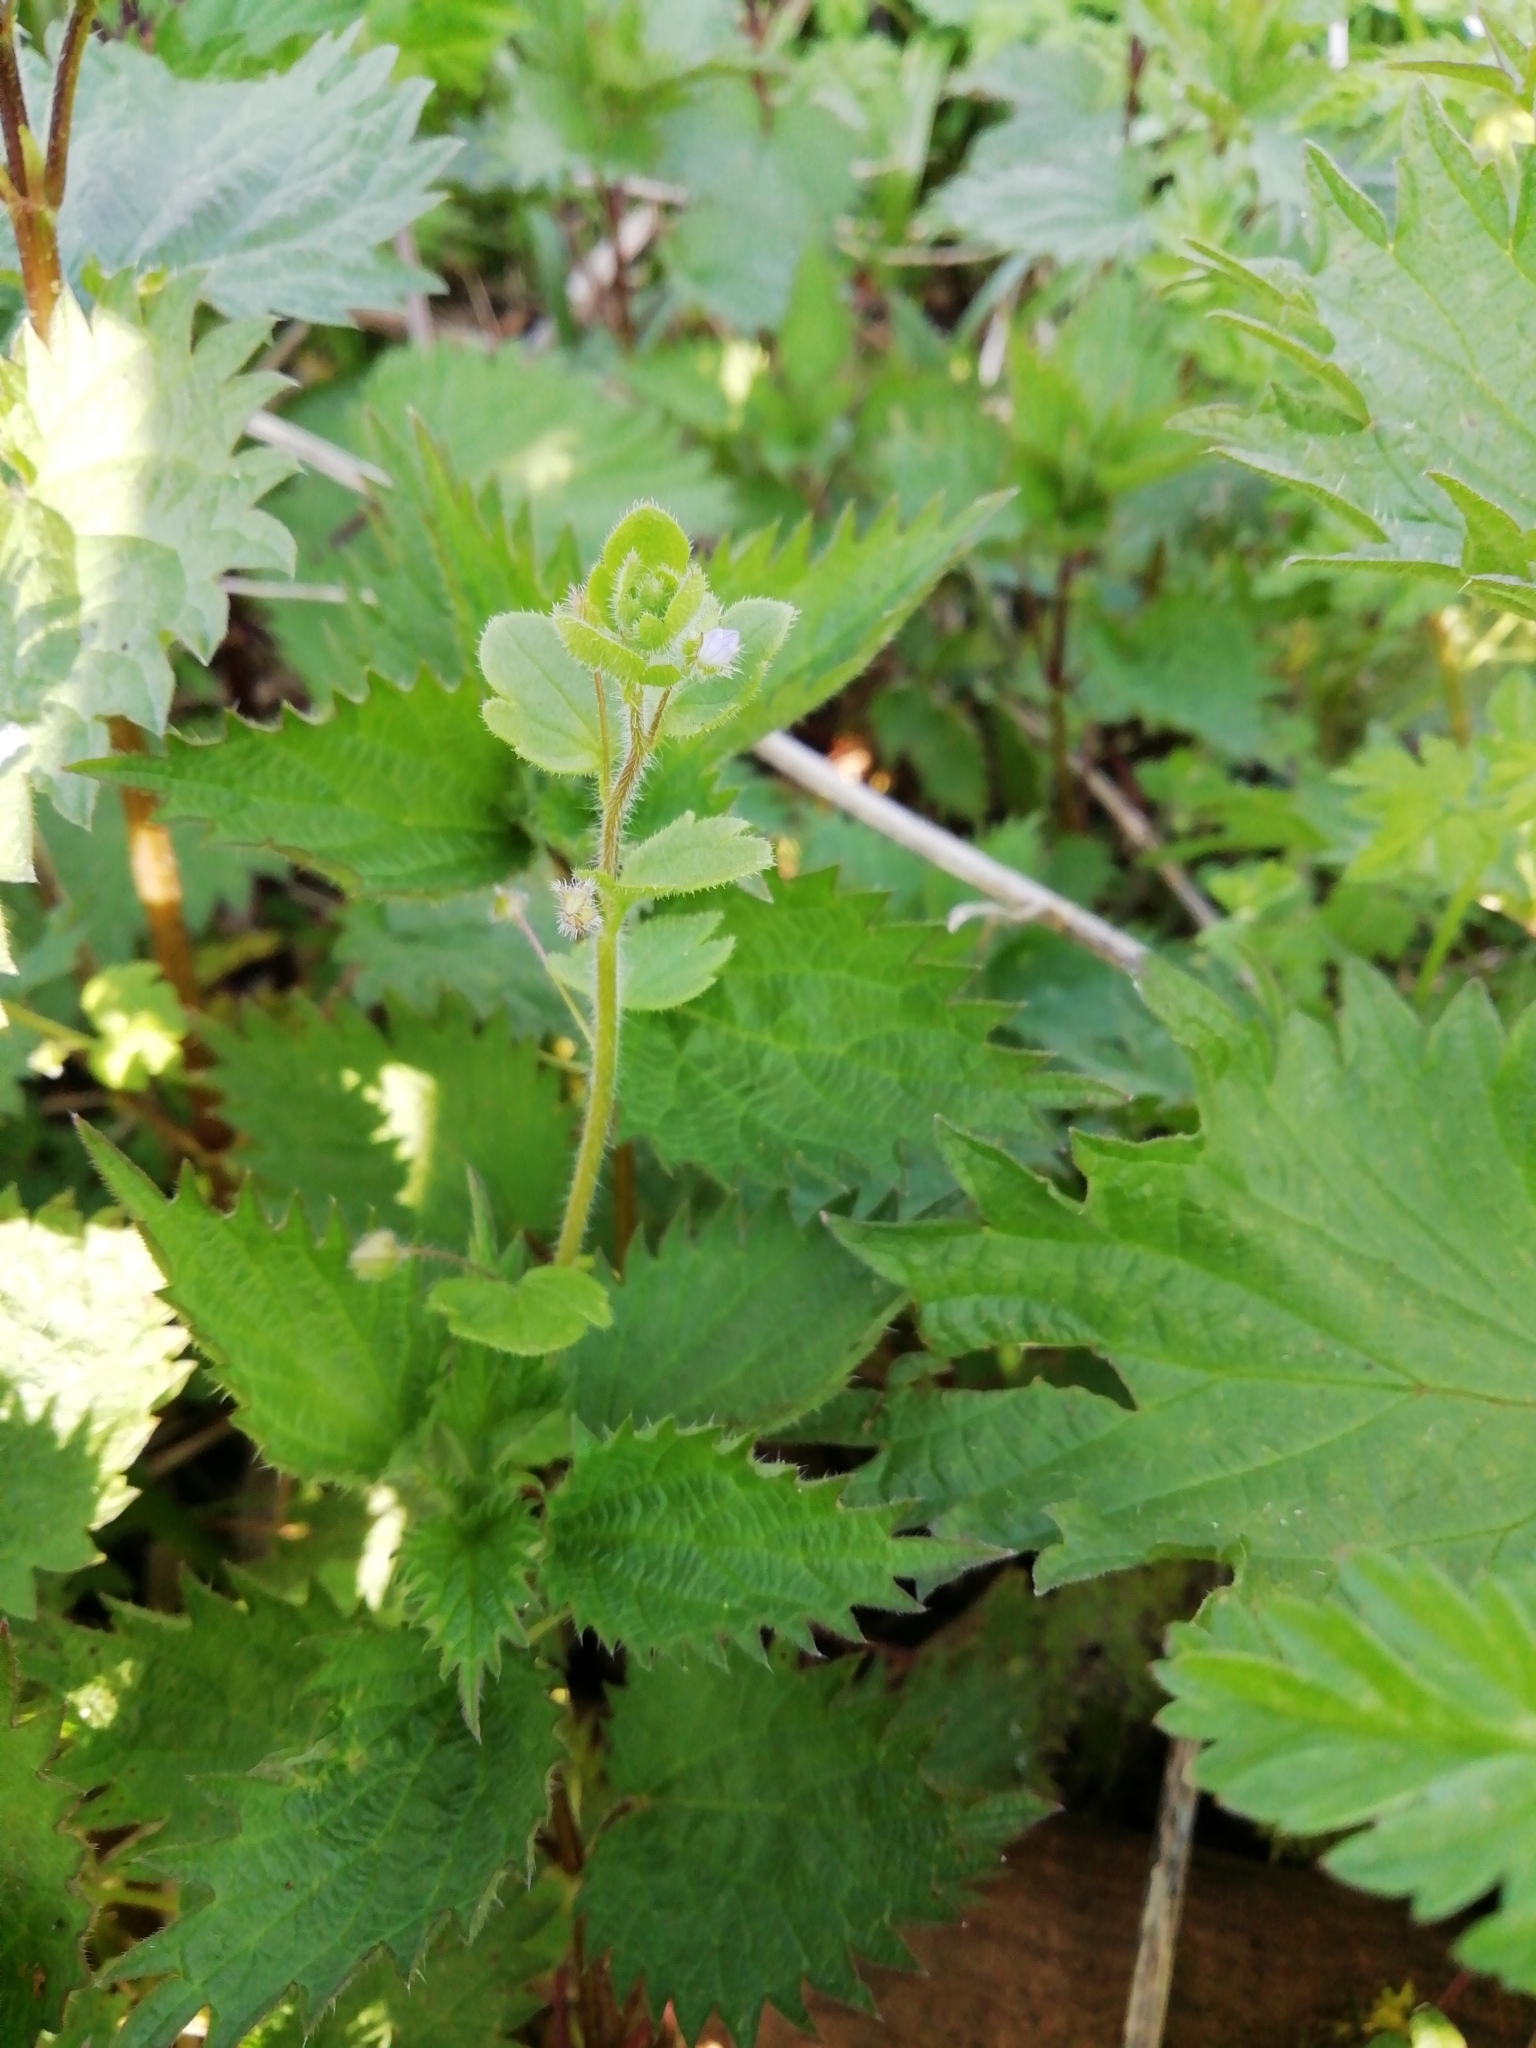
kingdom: Plantae
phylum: Tracheophyta
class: Magnoliopsida
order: Lamiales
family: Plantaginaceae
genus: Veronica
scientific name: Veronica hederifolia
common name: Ivy-leaved speedwell
